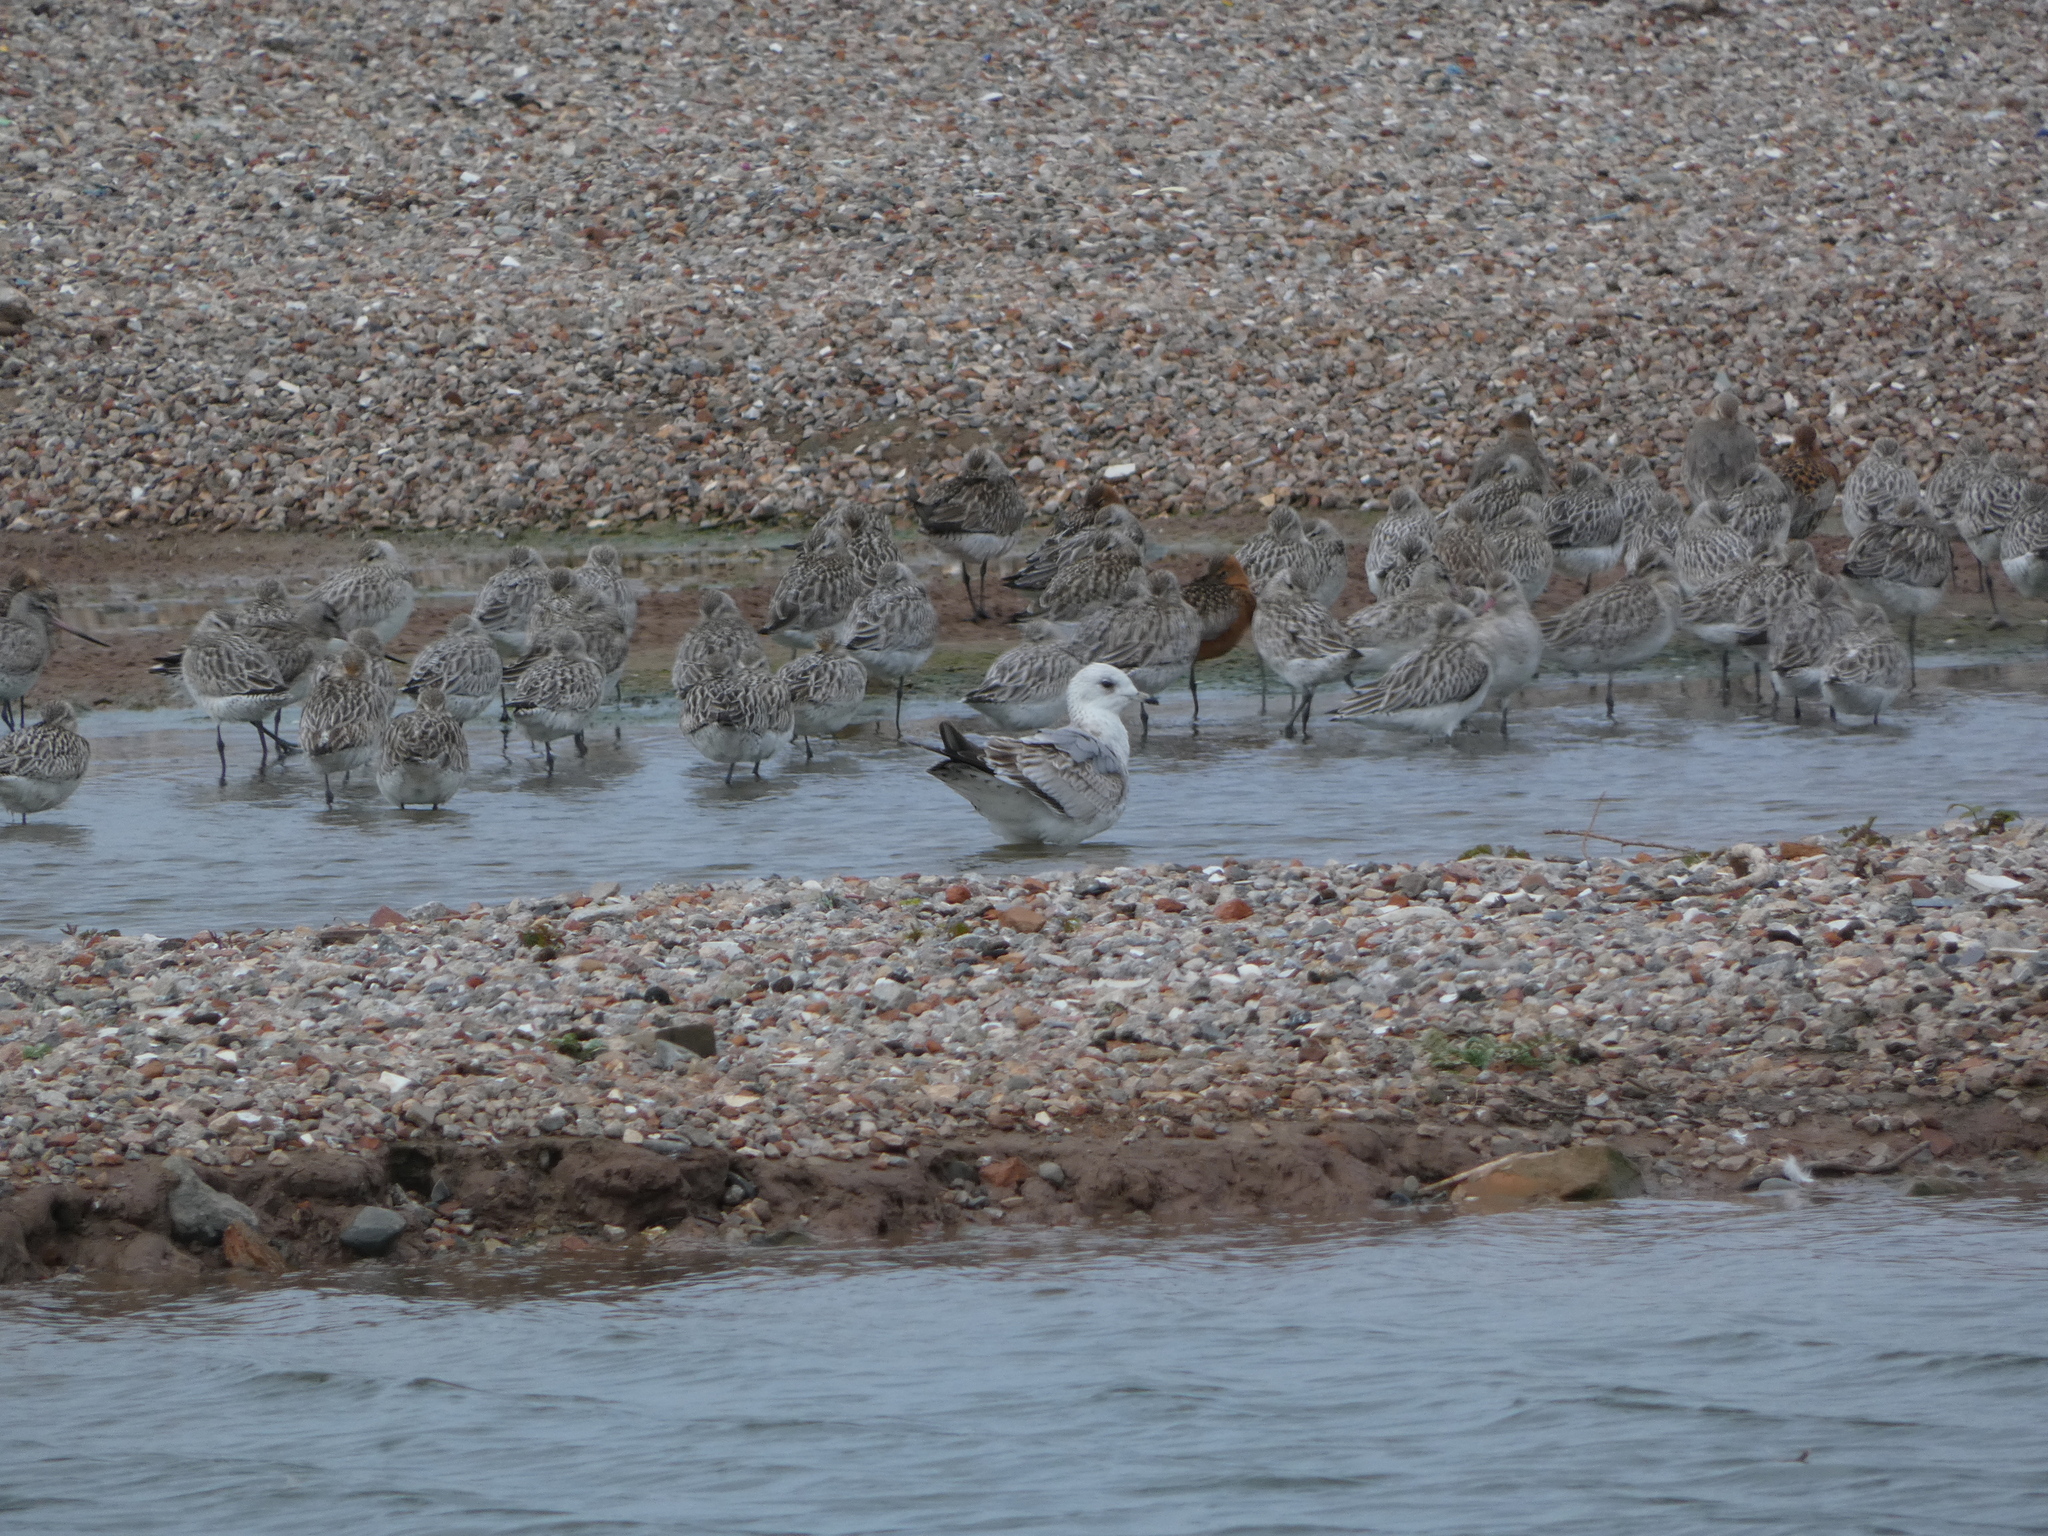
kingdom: Animalia
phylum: Chordata
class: Aves
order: Charadriiformes
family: Laridae
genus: Larus
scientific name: Larus canus
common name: Mew gull
